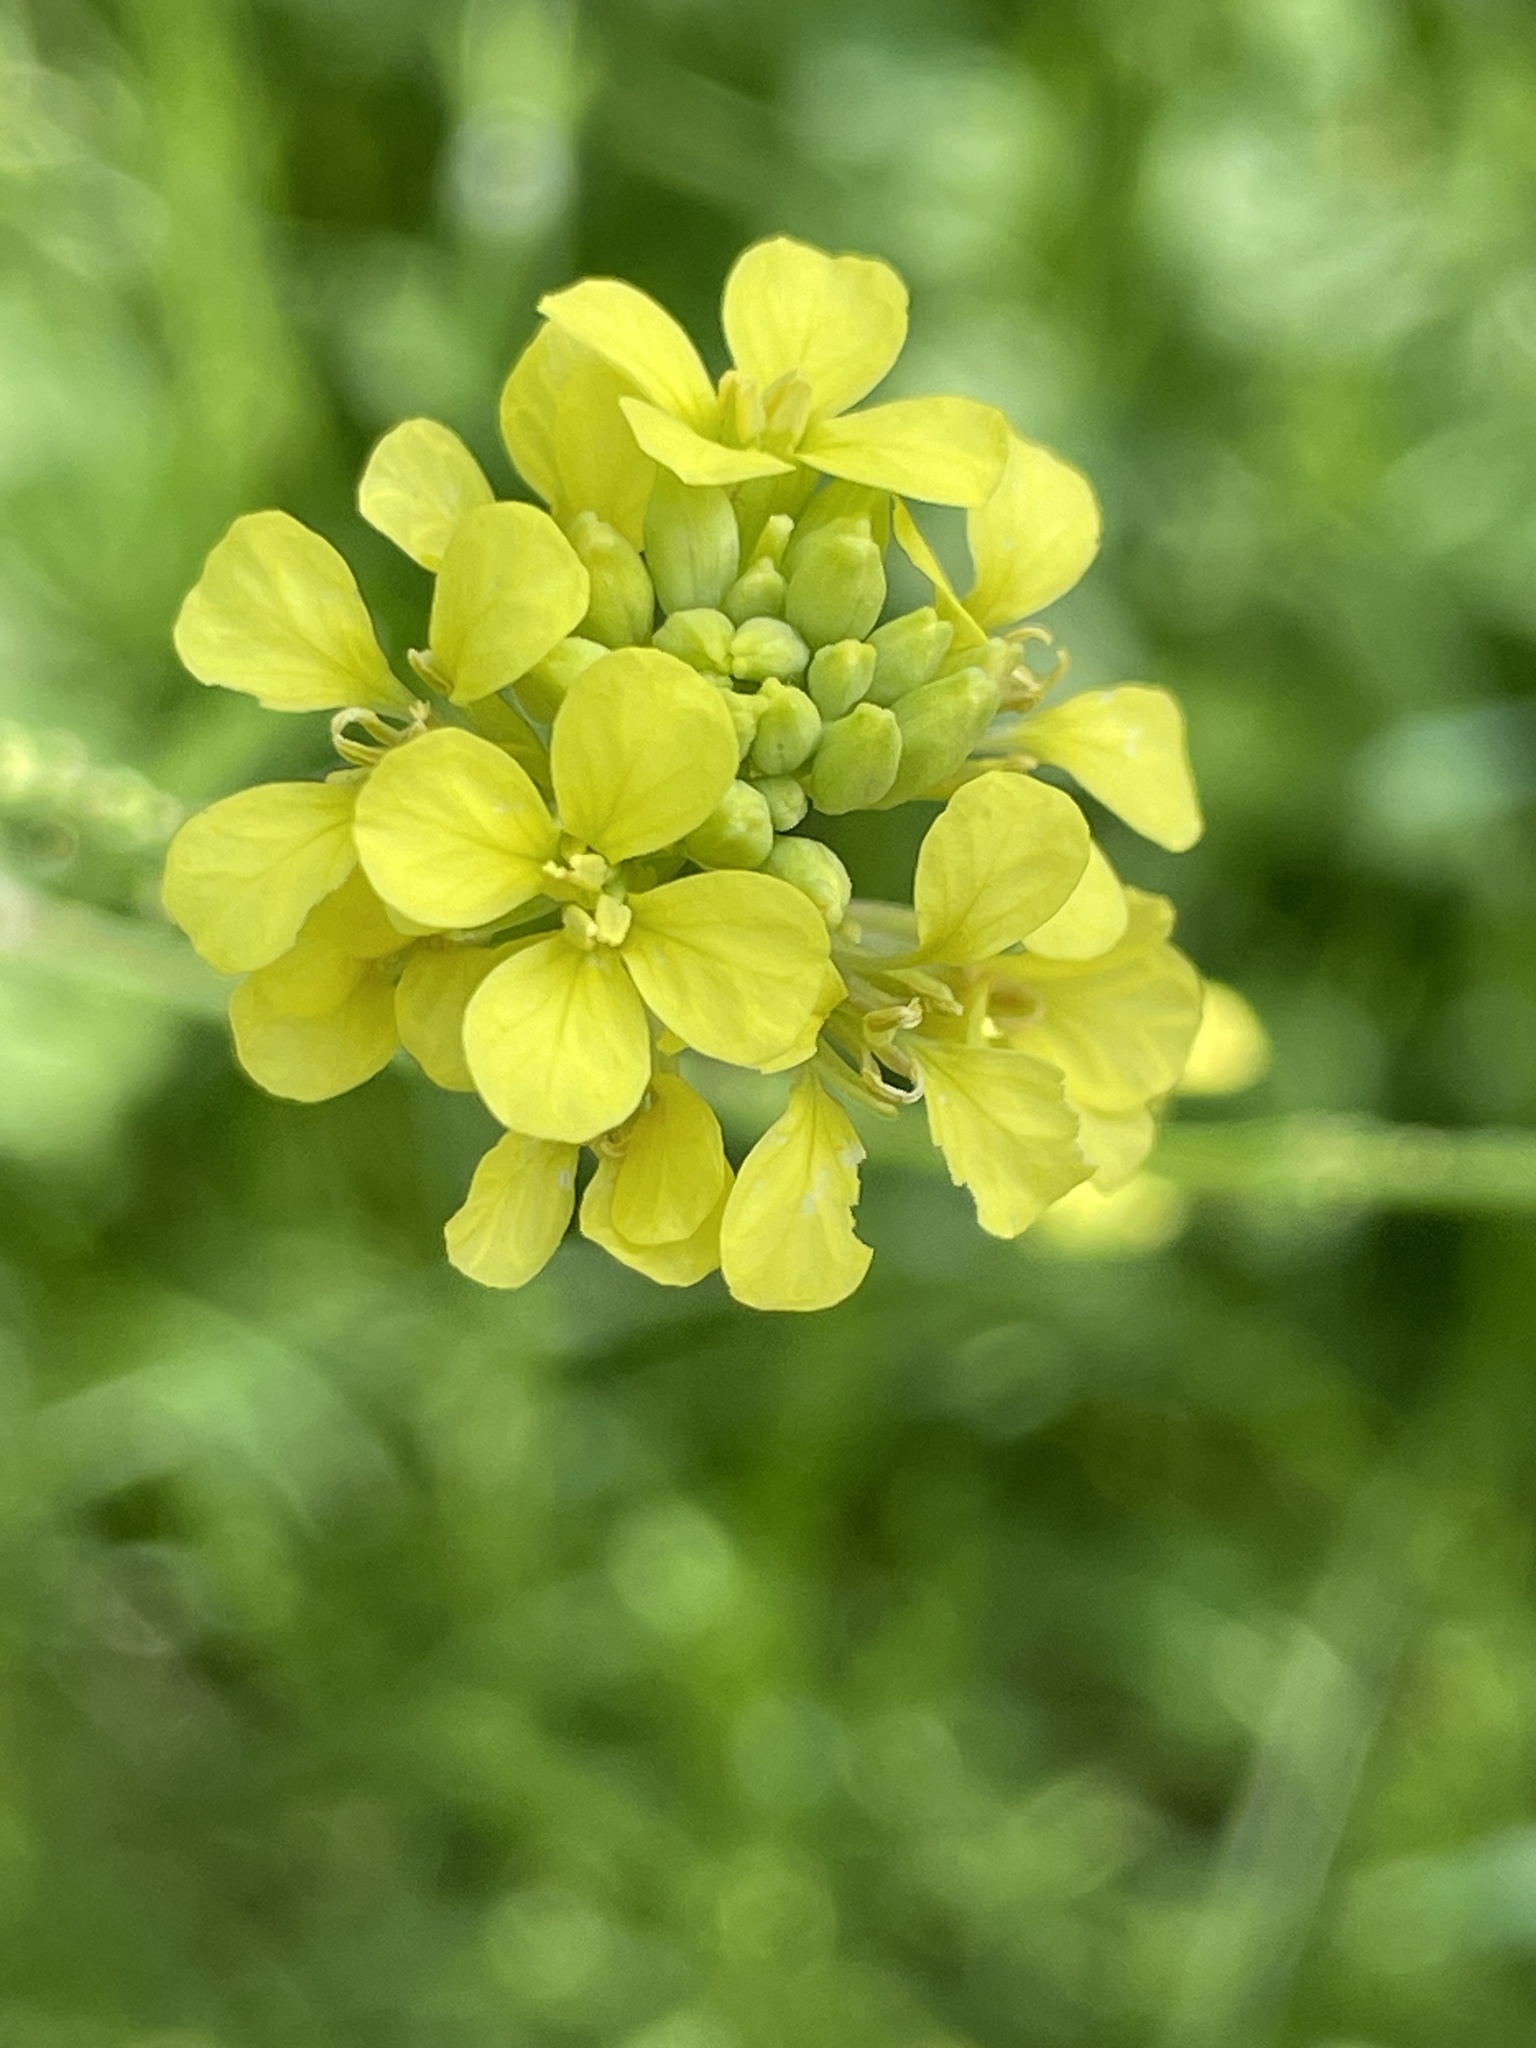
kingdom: Plantae
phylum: Tracheophyta
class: Magnoliopsida
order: Brassicales
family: Brassicaceae
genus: Rapistrum
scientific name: Rapistrum rugosum
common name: Annual bastardcabbage
